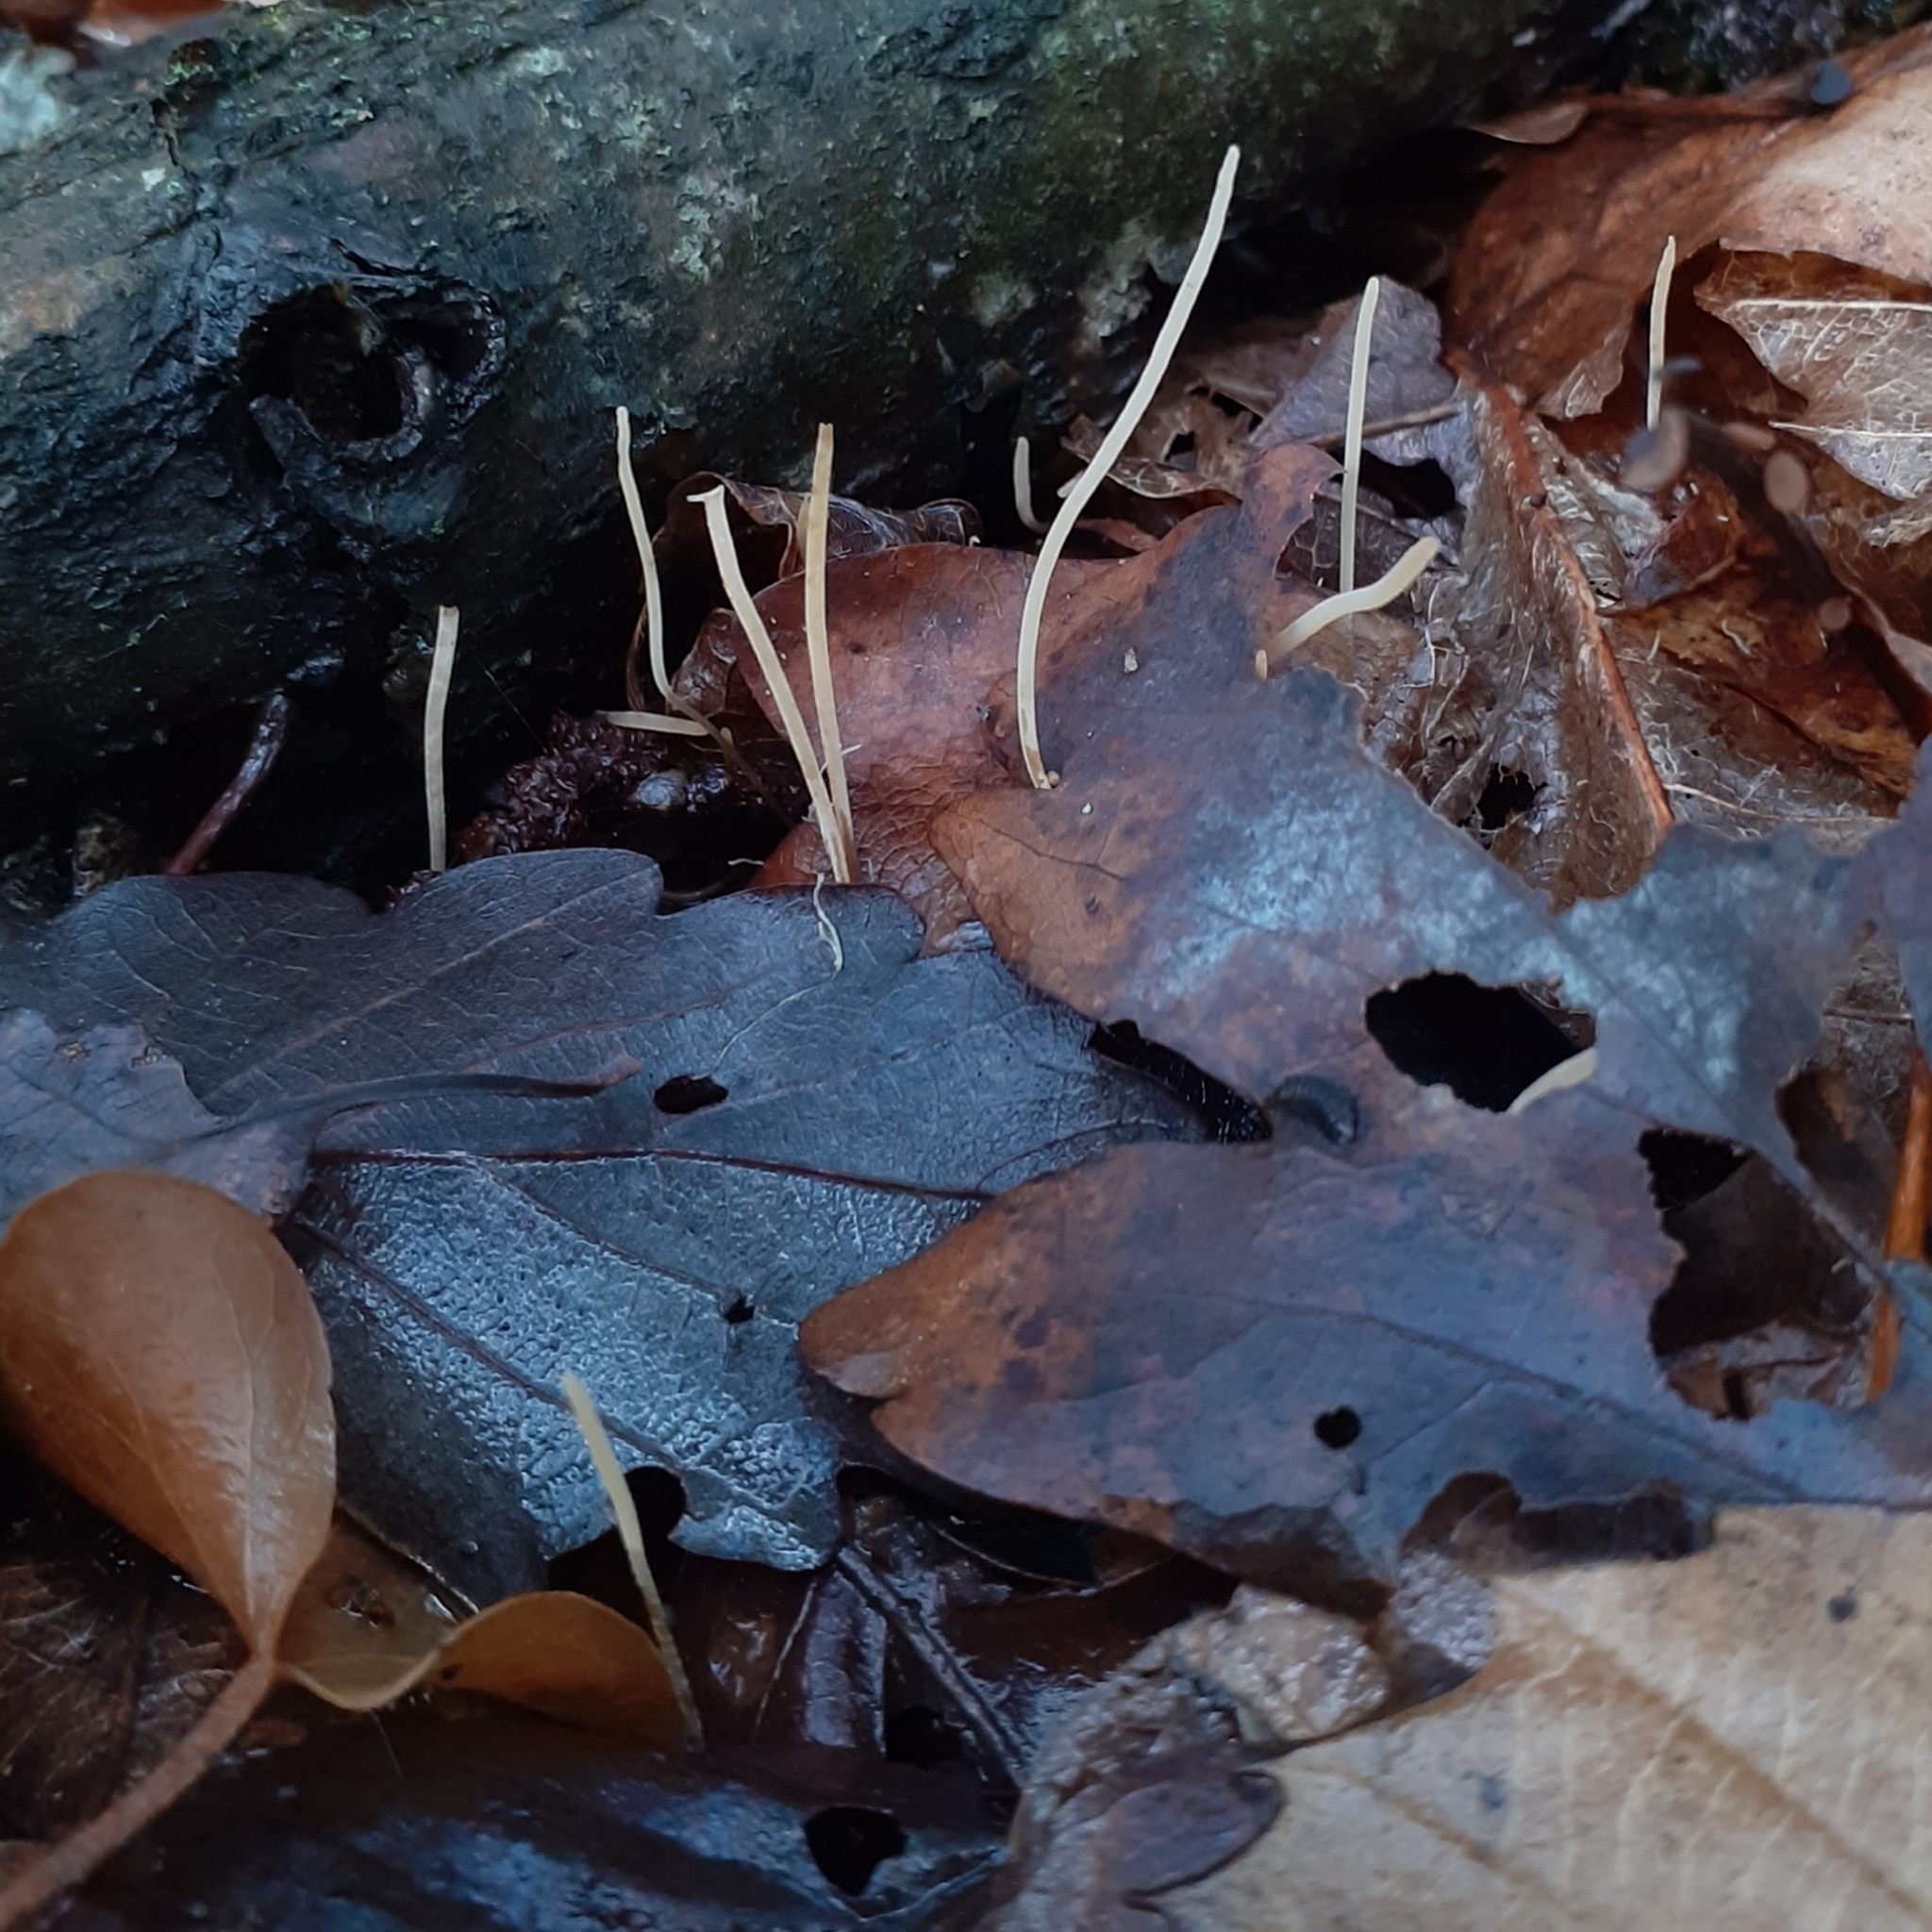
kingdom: Fungi
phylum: Basidiomycota
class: Agaricomycetes
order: Agaricales
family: Typhulaceae
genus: Typhula
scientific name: Typhula juncea
